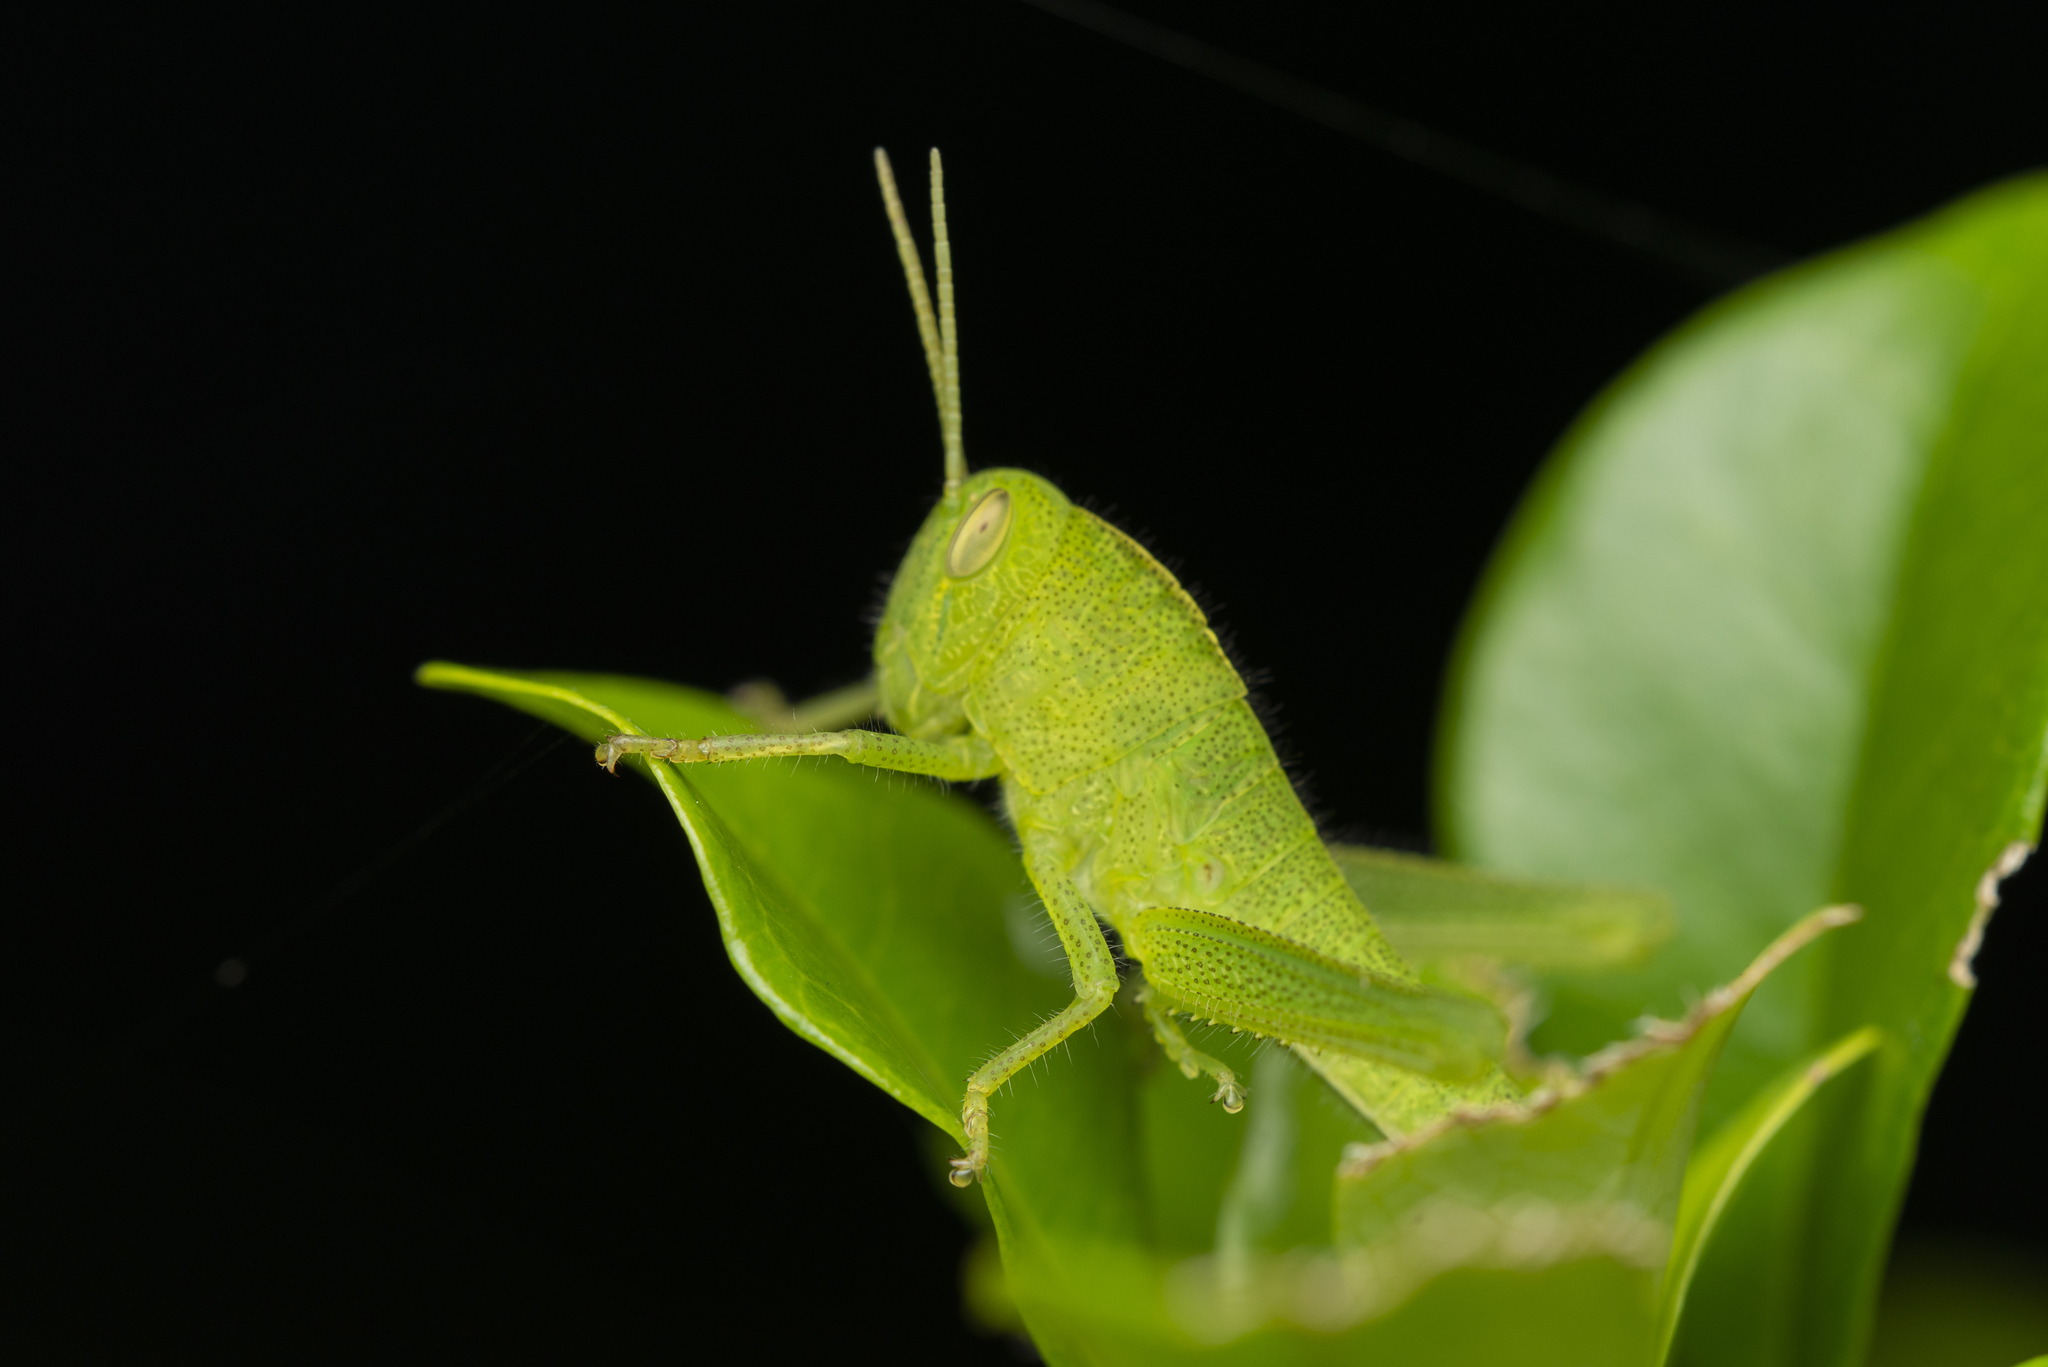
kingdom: Animalia
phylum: Arthropoda
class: Insecta
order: Orthoptera
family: Acrididae
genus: Chondracris
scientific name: Chondracris rosea
